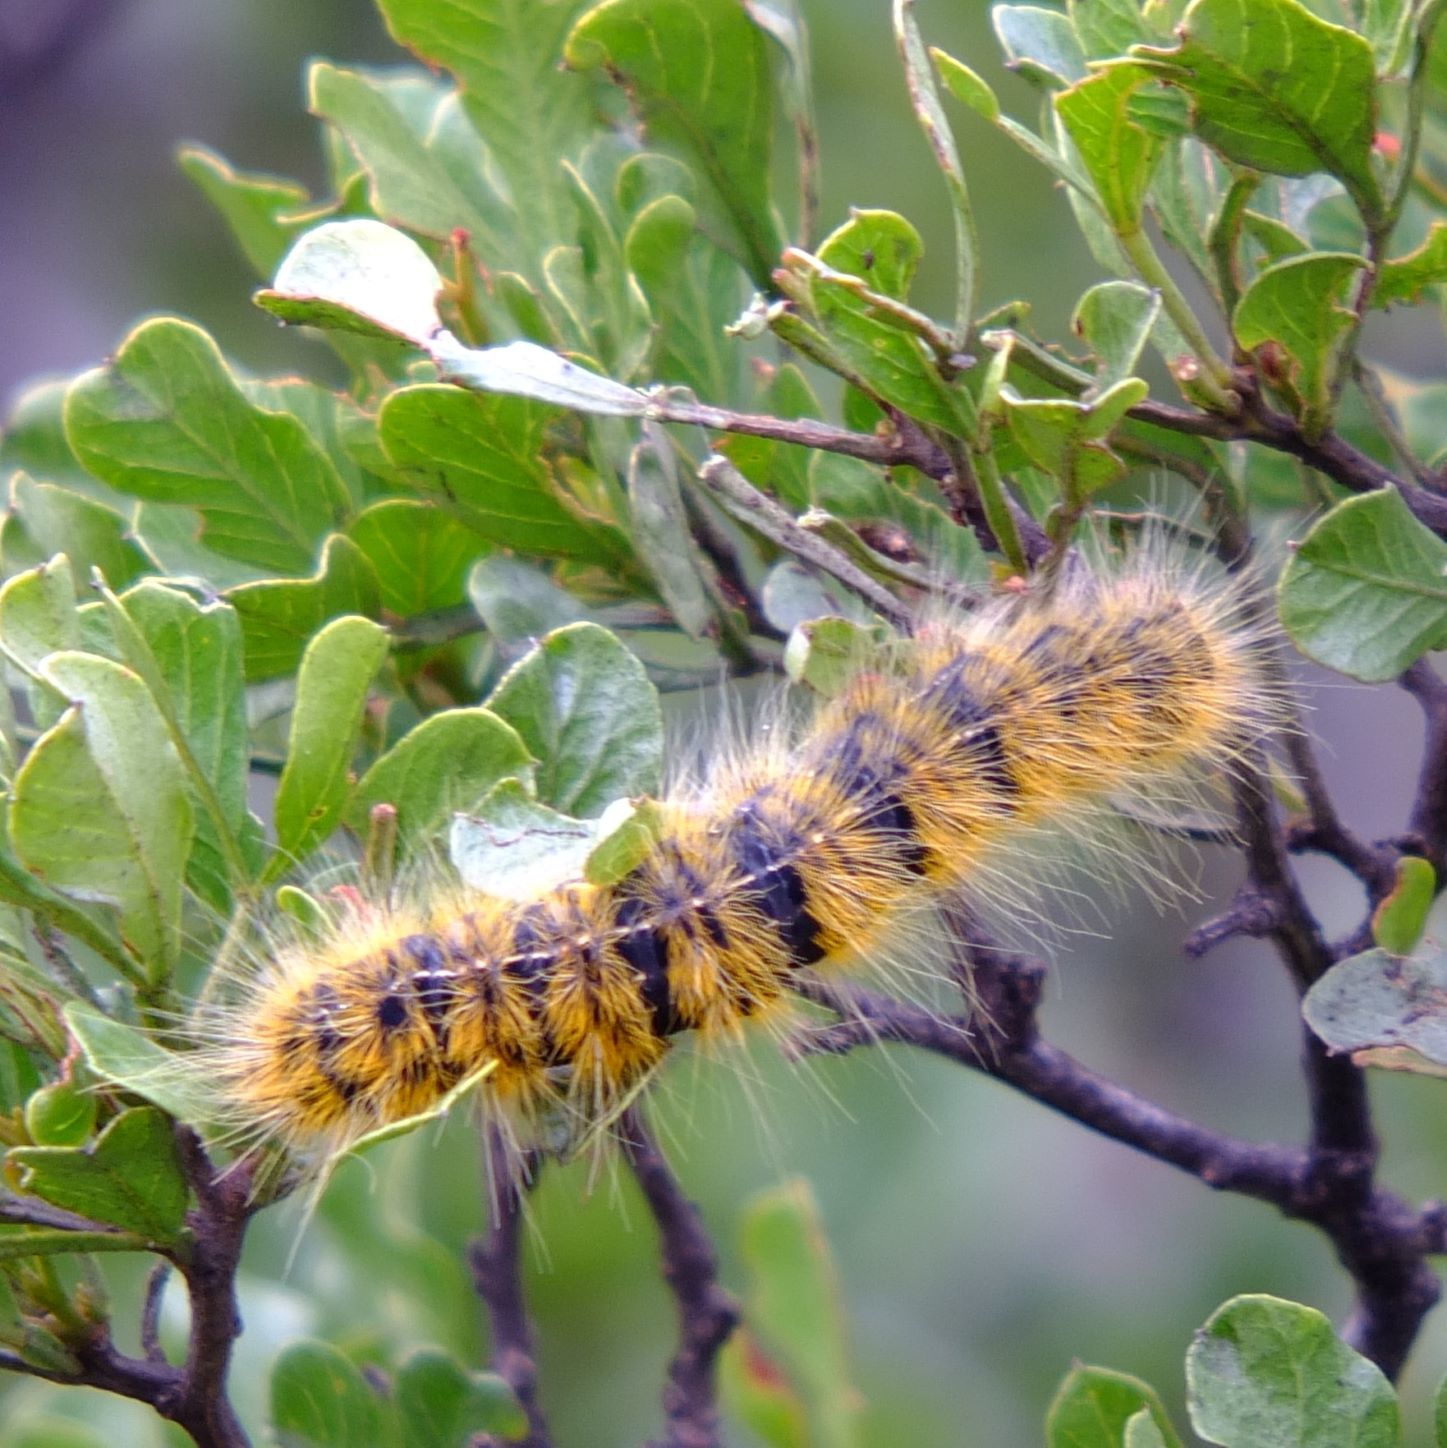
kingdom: Animalia
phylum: Arthropoda
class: Insecta
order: Lepidoptera
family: Lasiocampidae
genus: Bombycomorpha
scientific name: Bombycomorpha bifascia
